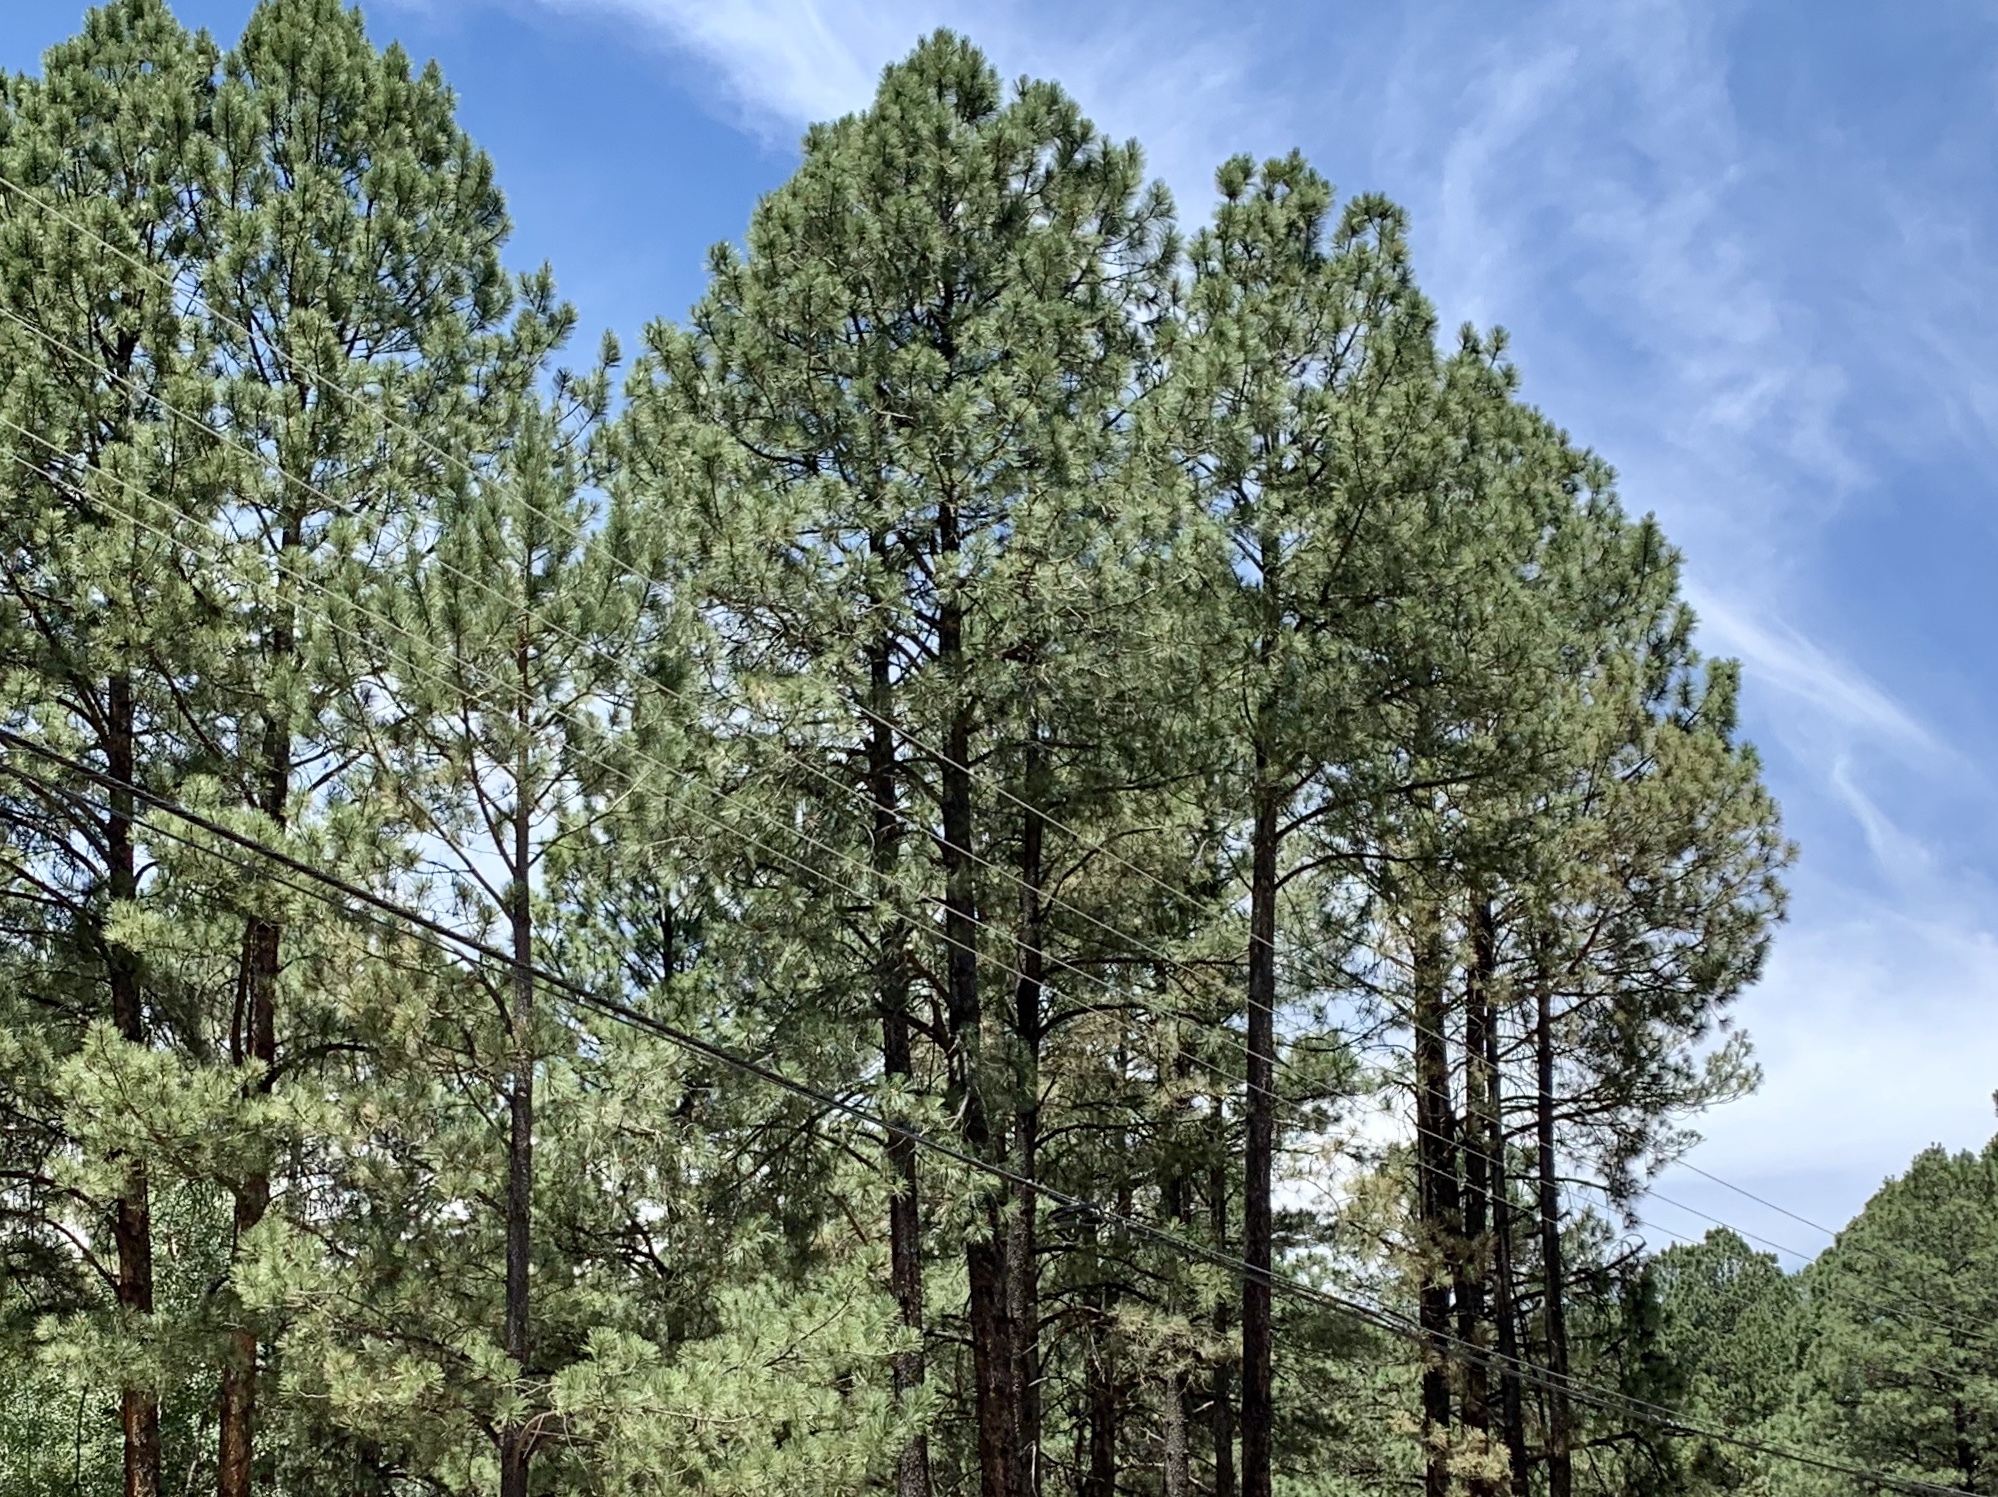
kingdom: Plantae
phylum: Tracheophyta
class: Pinopsida
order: Pinales
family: Pinaceae
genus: Pinus
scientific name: Pinus ponderosa
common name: Western yellow-pine
